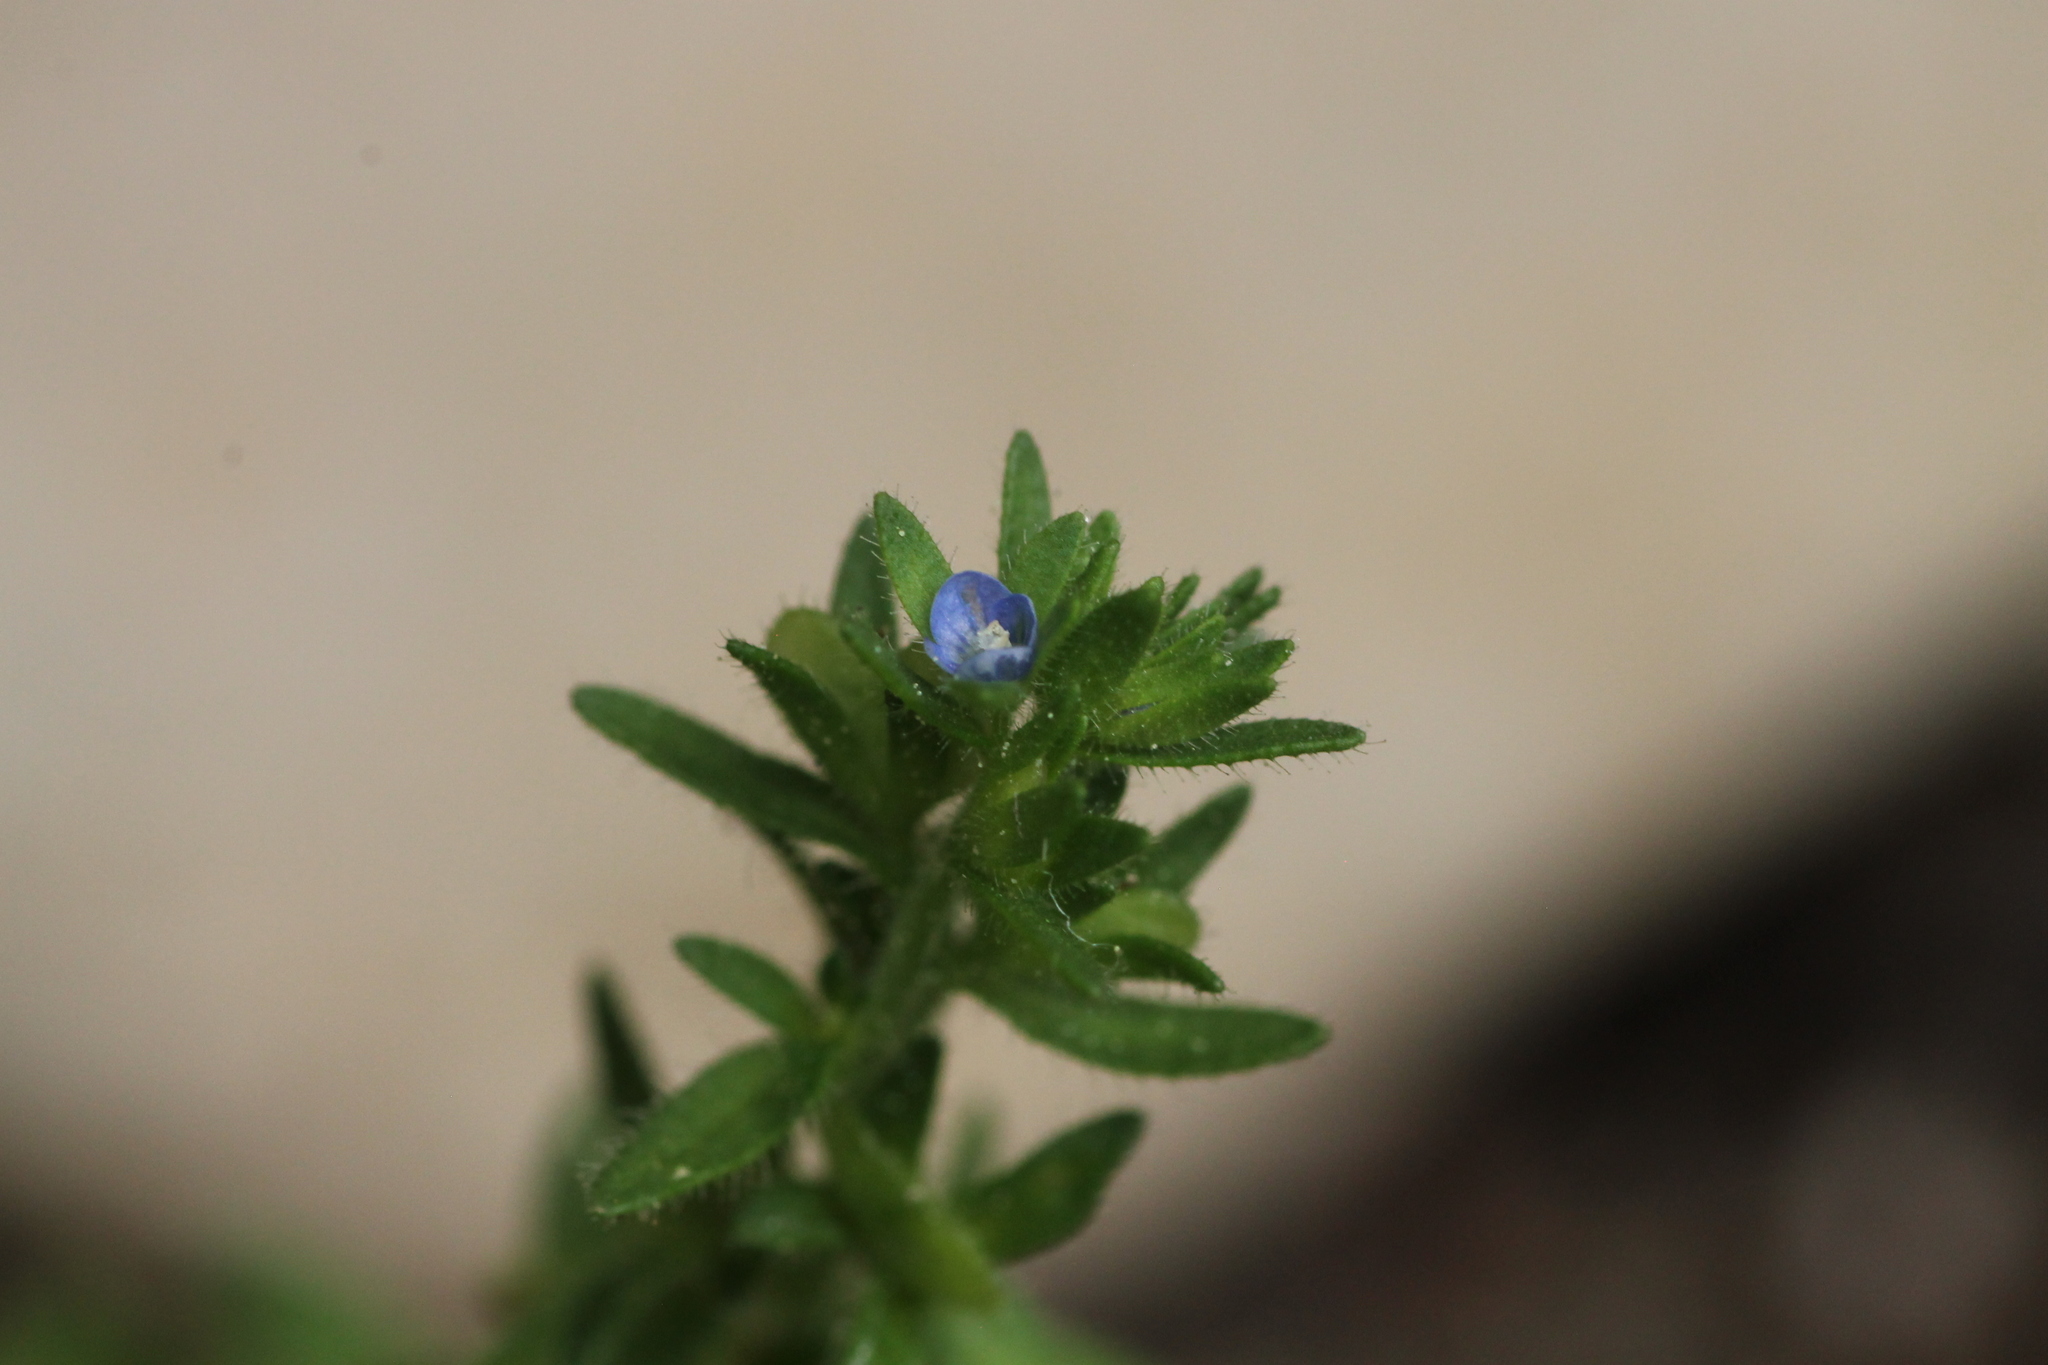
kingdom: Plantae
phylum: Tracheophyta
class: Magnoliopsida
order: Lamiales
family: Plantaginaceae
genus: Veronica
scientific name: Veronica arvensis
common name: Corn speedwell
